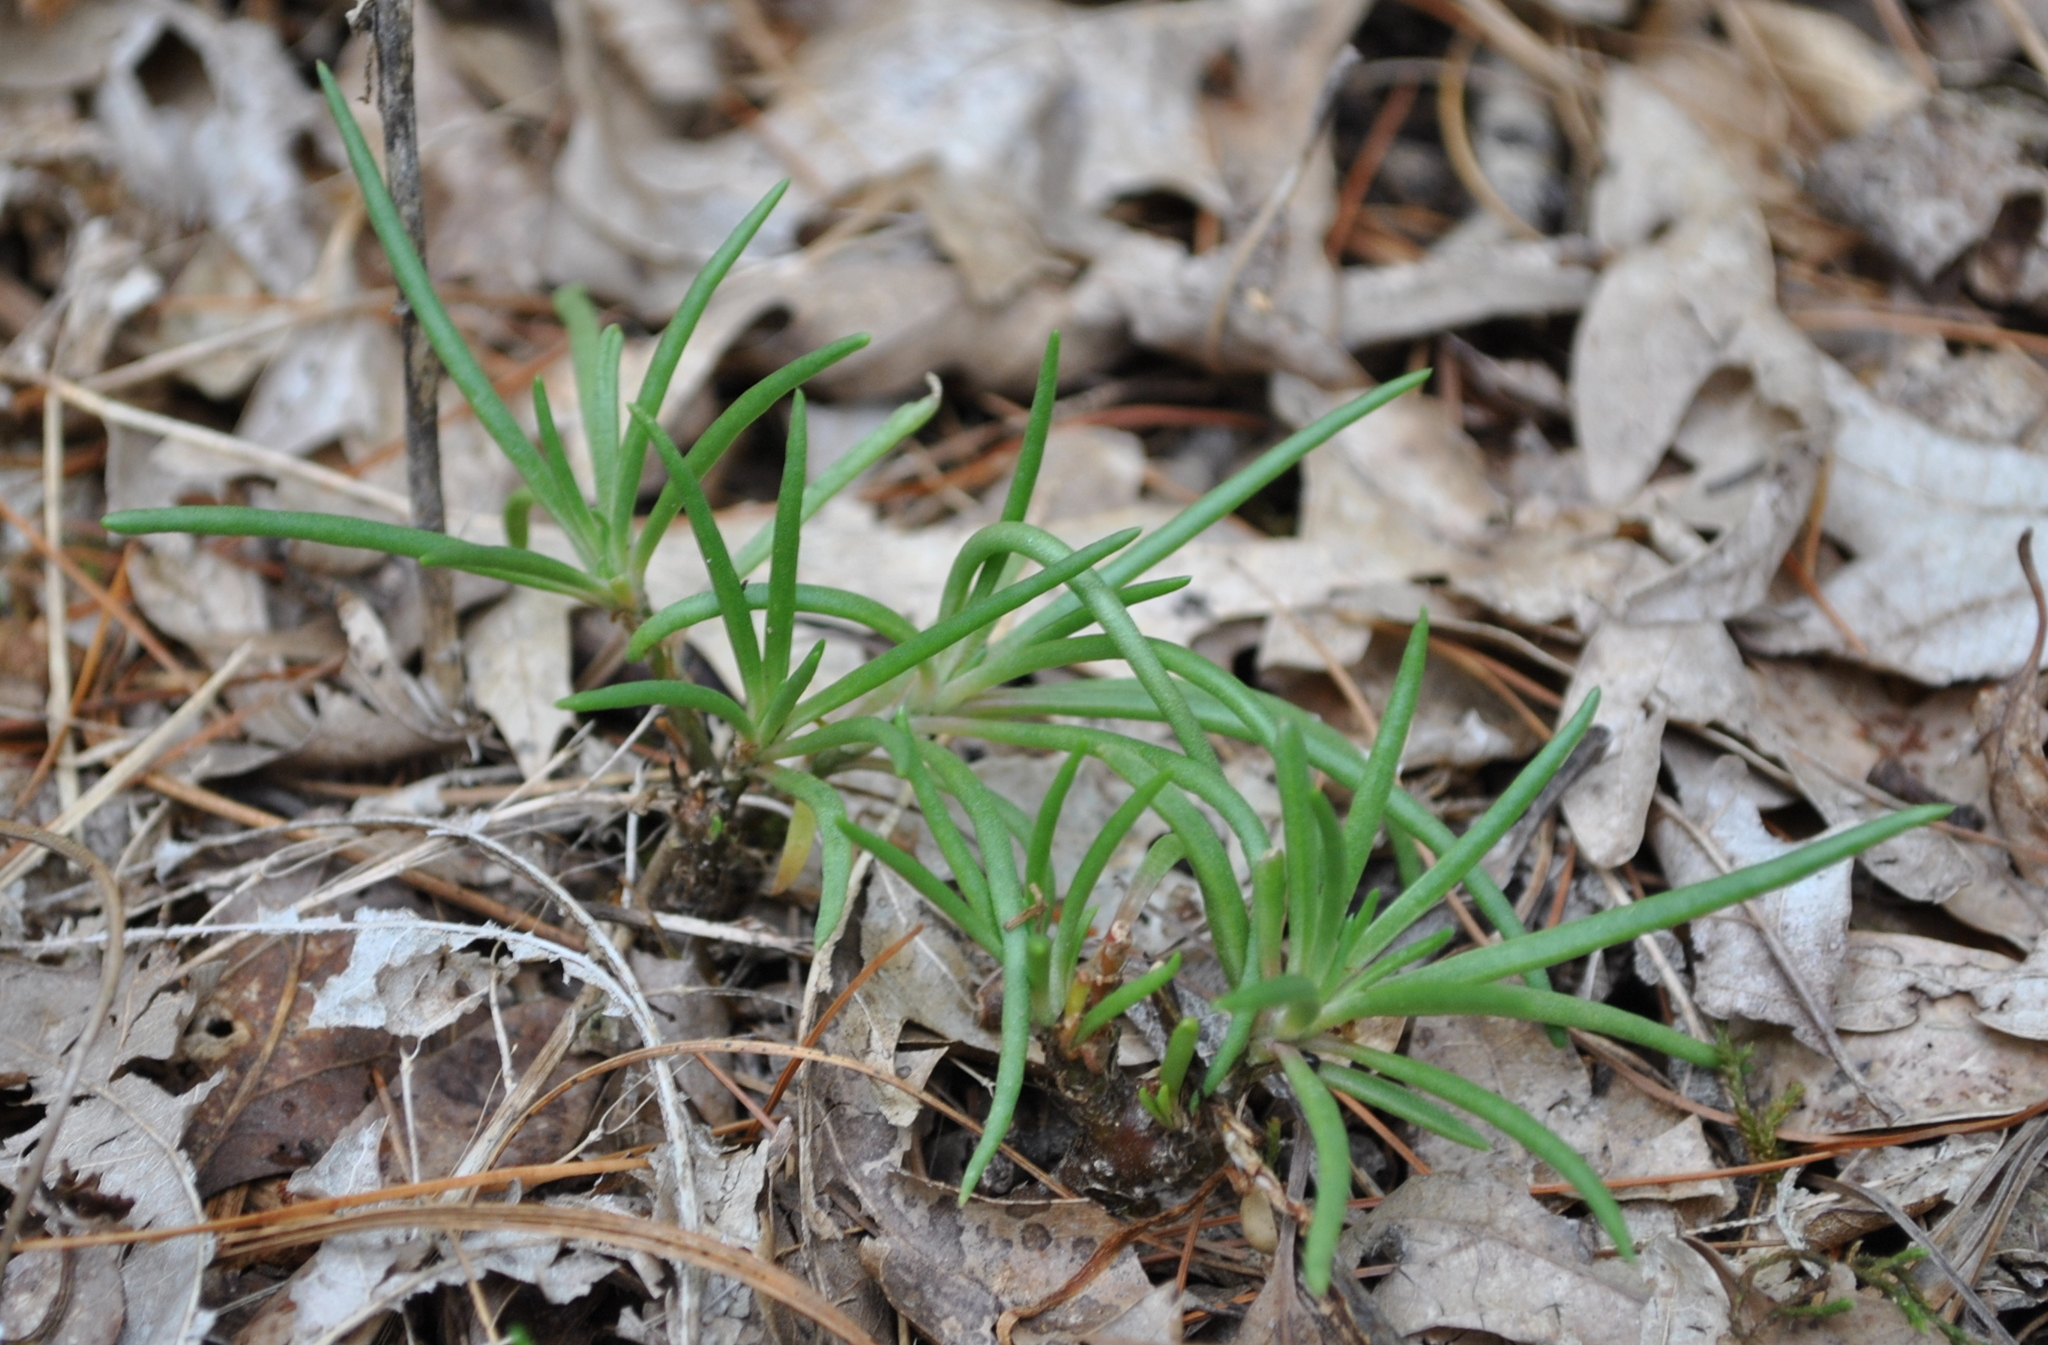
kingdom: Plantae
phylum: Tracheophyta
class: Magnoliopsida
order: Caryophyllales
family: Montiaceae
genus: Phemeranthus
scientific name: Phemeranthus rugospermus
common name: Prairie fameflower
